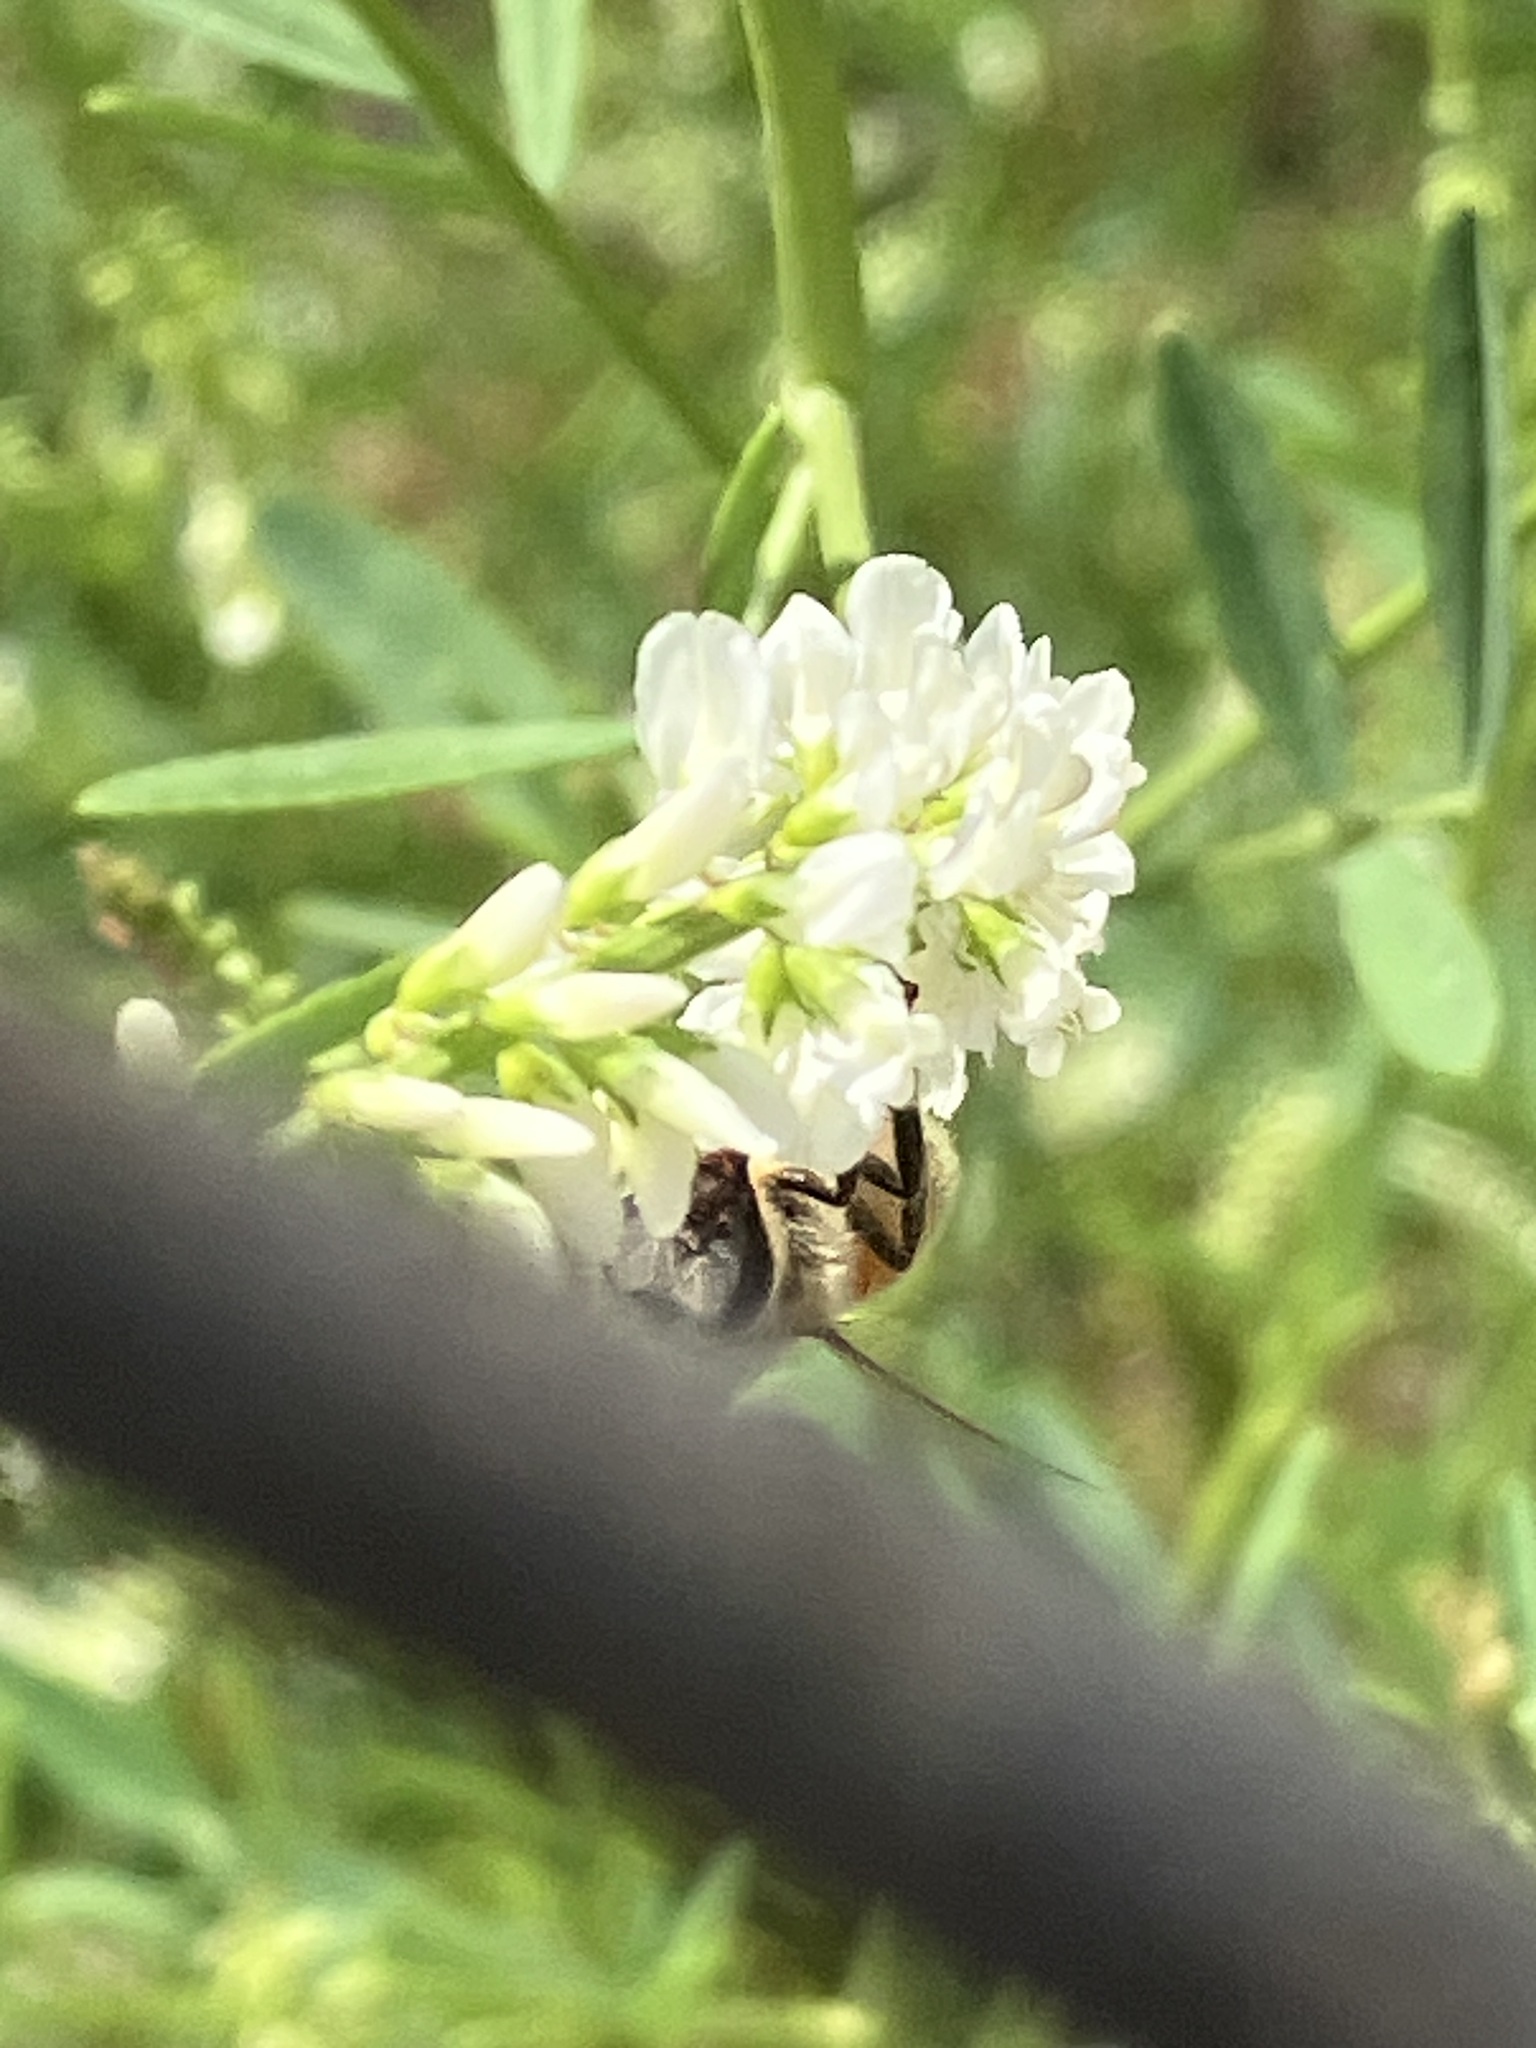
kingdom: Animalia
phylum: Arthropoda
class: Insecta
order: Hymenoptera
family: Apidae
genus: Apis
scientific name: Apis mellifera
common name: Honey bee
